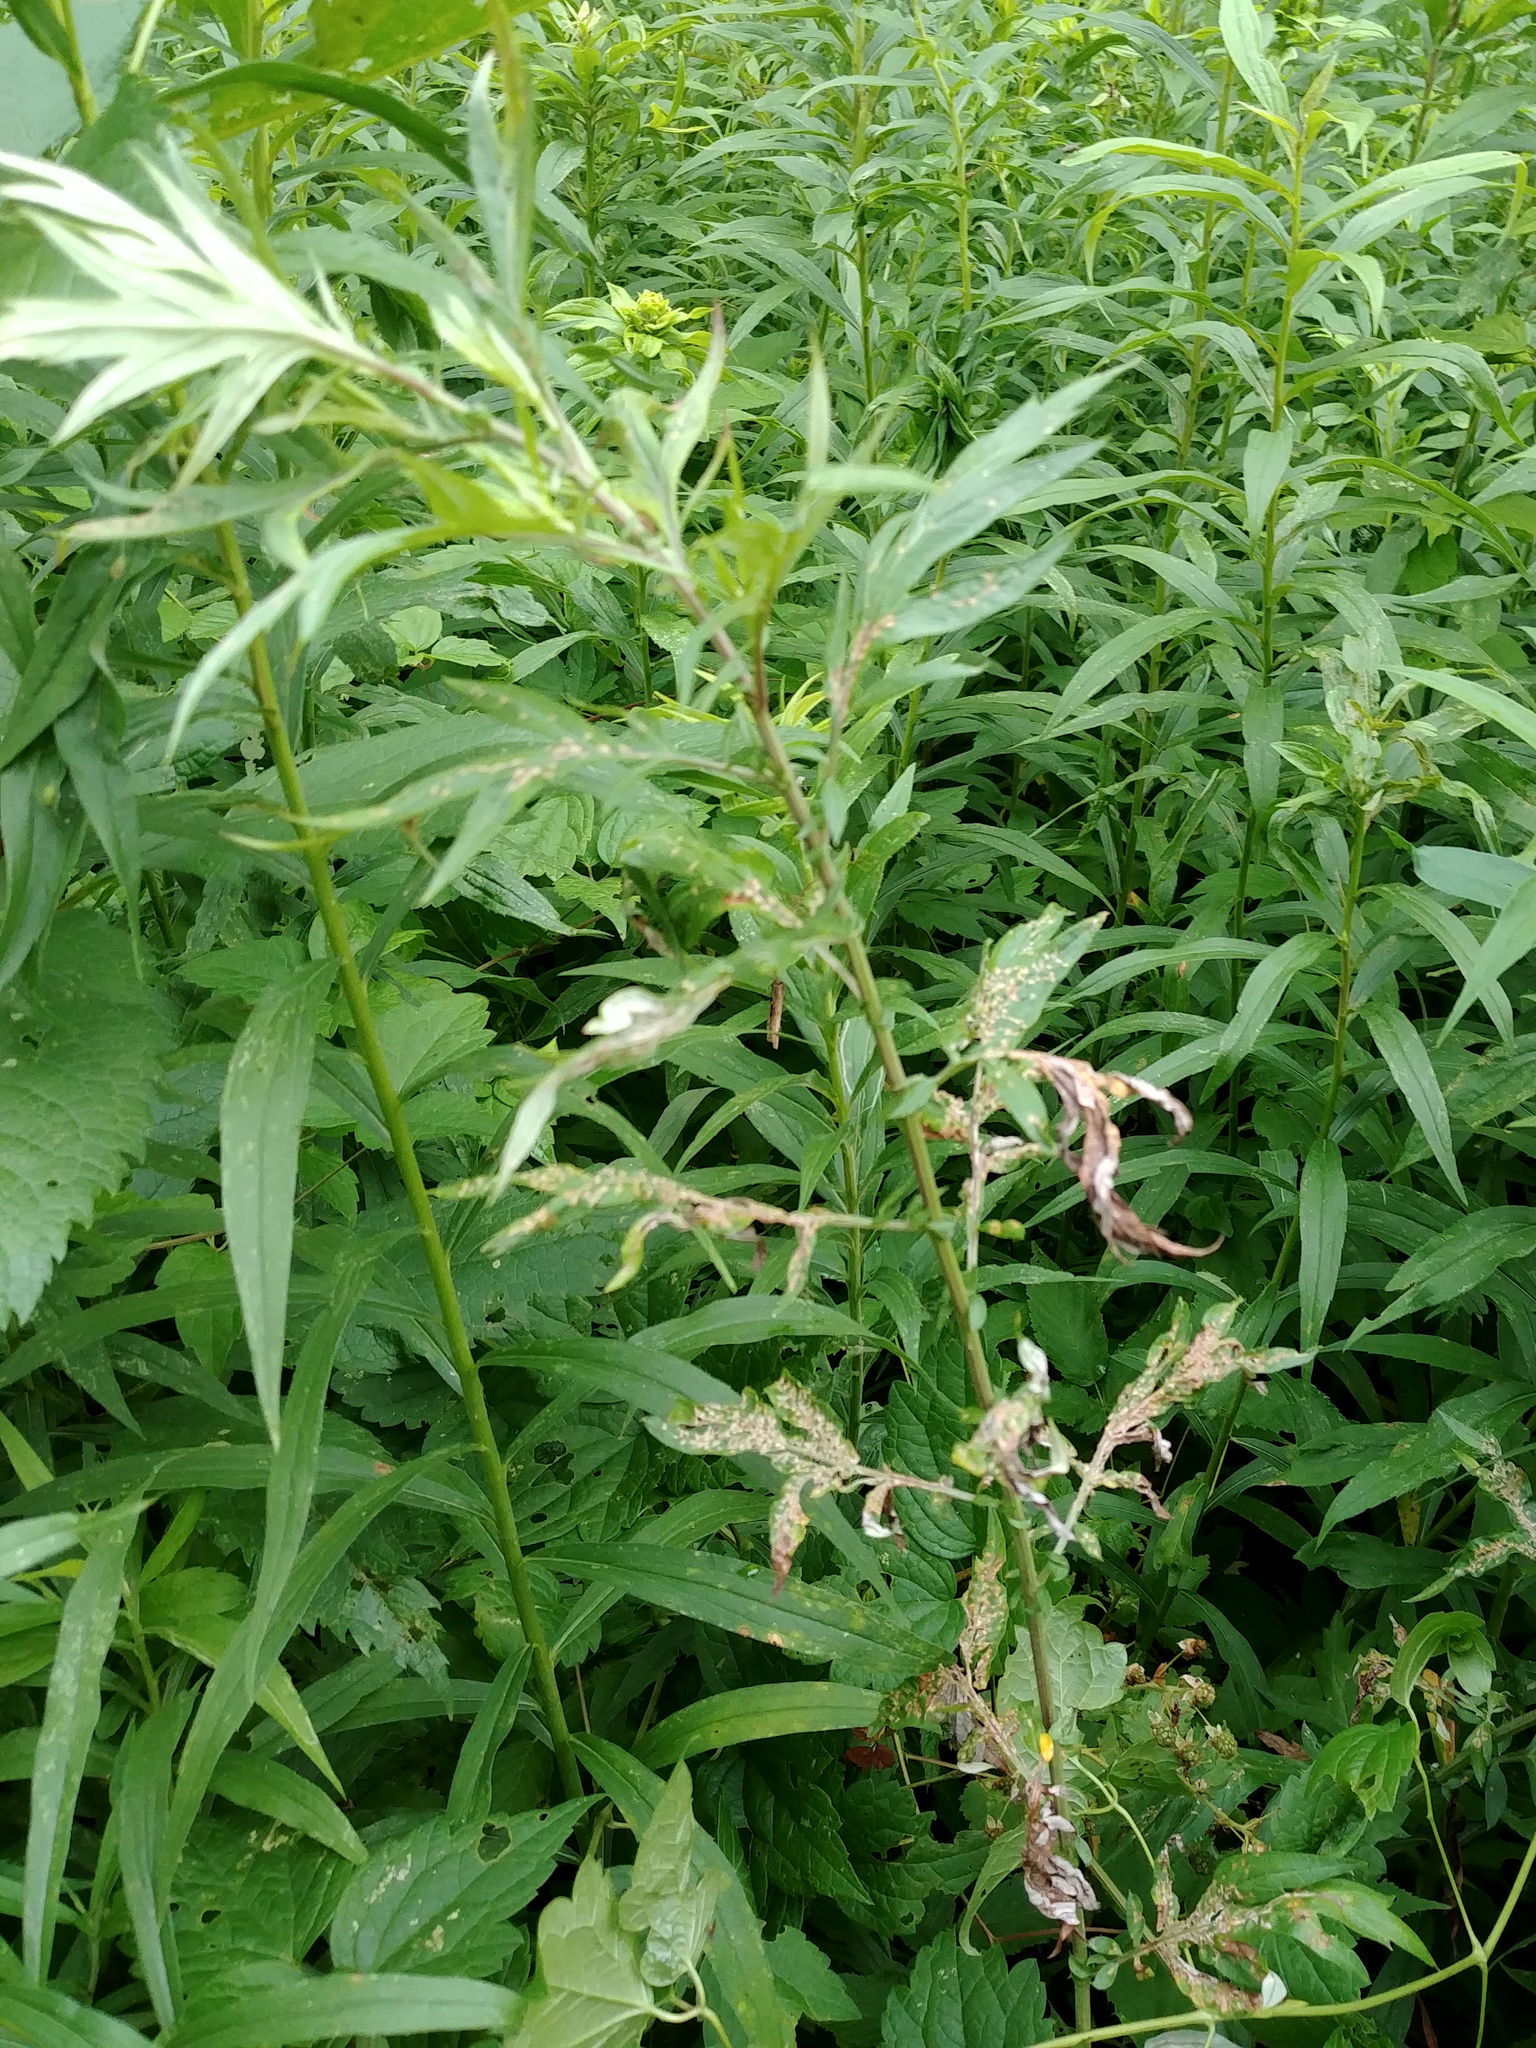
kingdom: Plantae
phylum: Tracheophyta
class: Magnoliopsida
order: Asterales
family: Asteraceae
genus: Artemisia
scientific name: Artemisia vulgaris
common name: Mugwort
